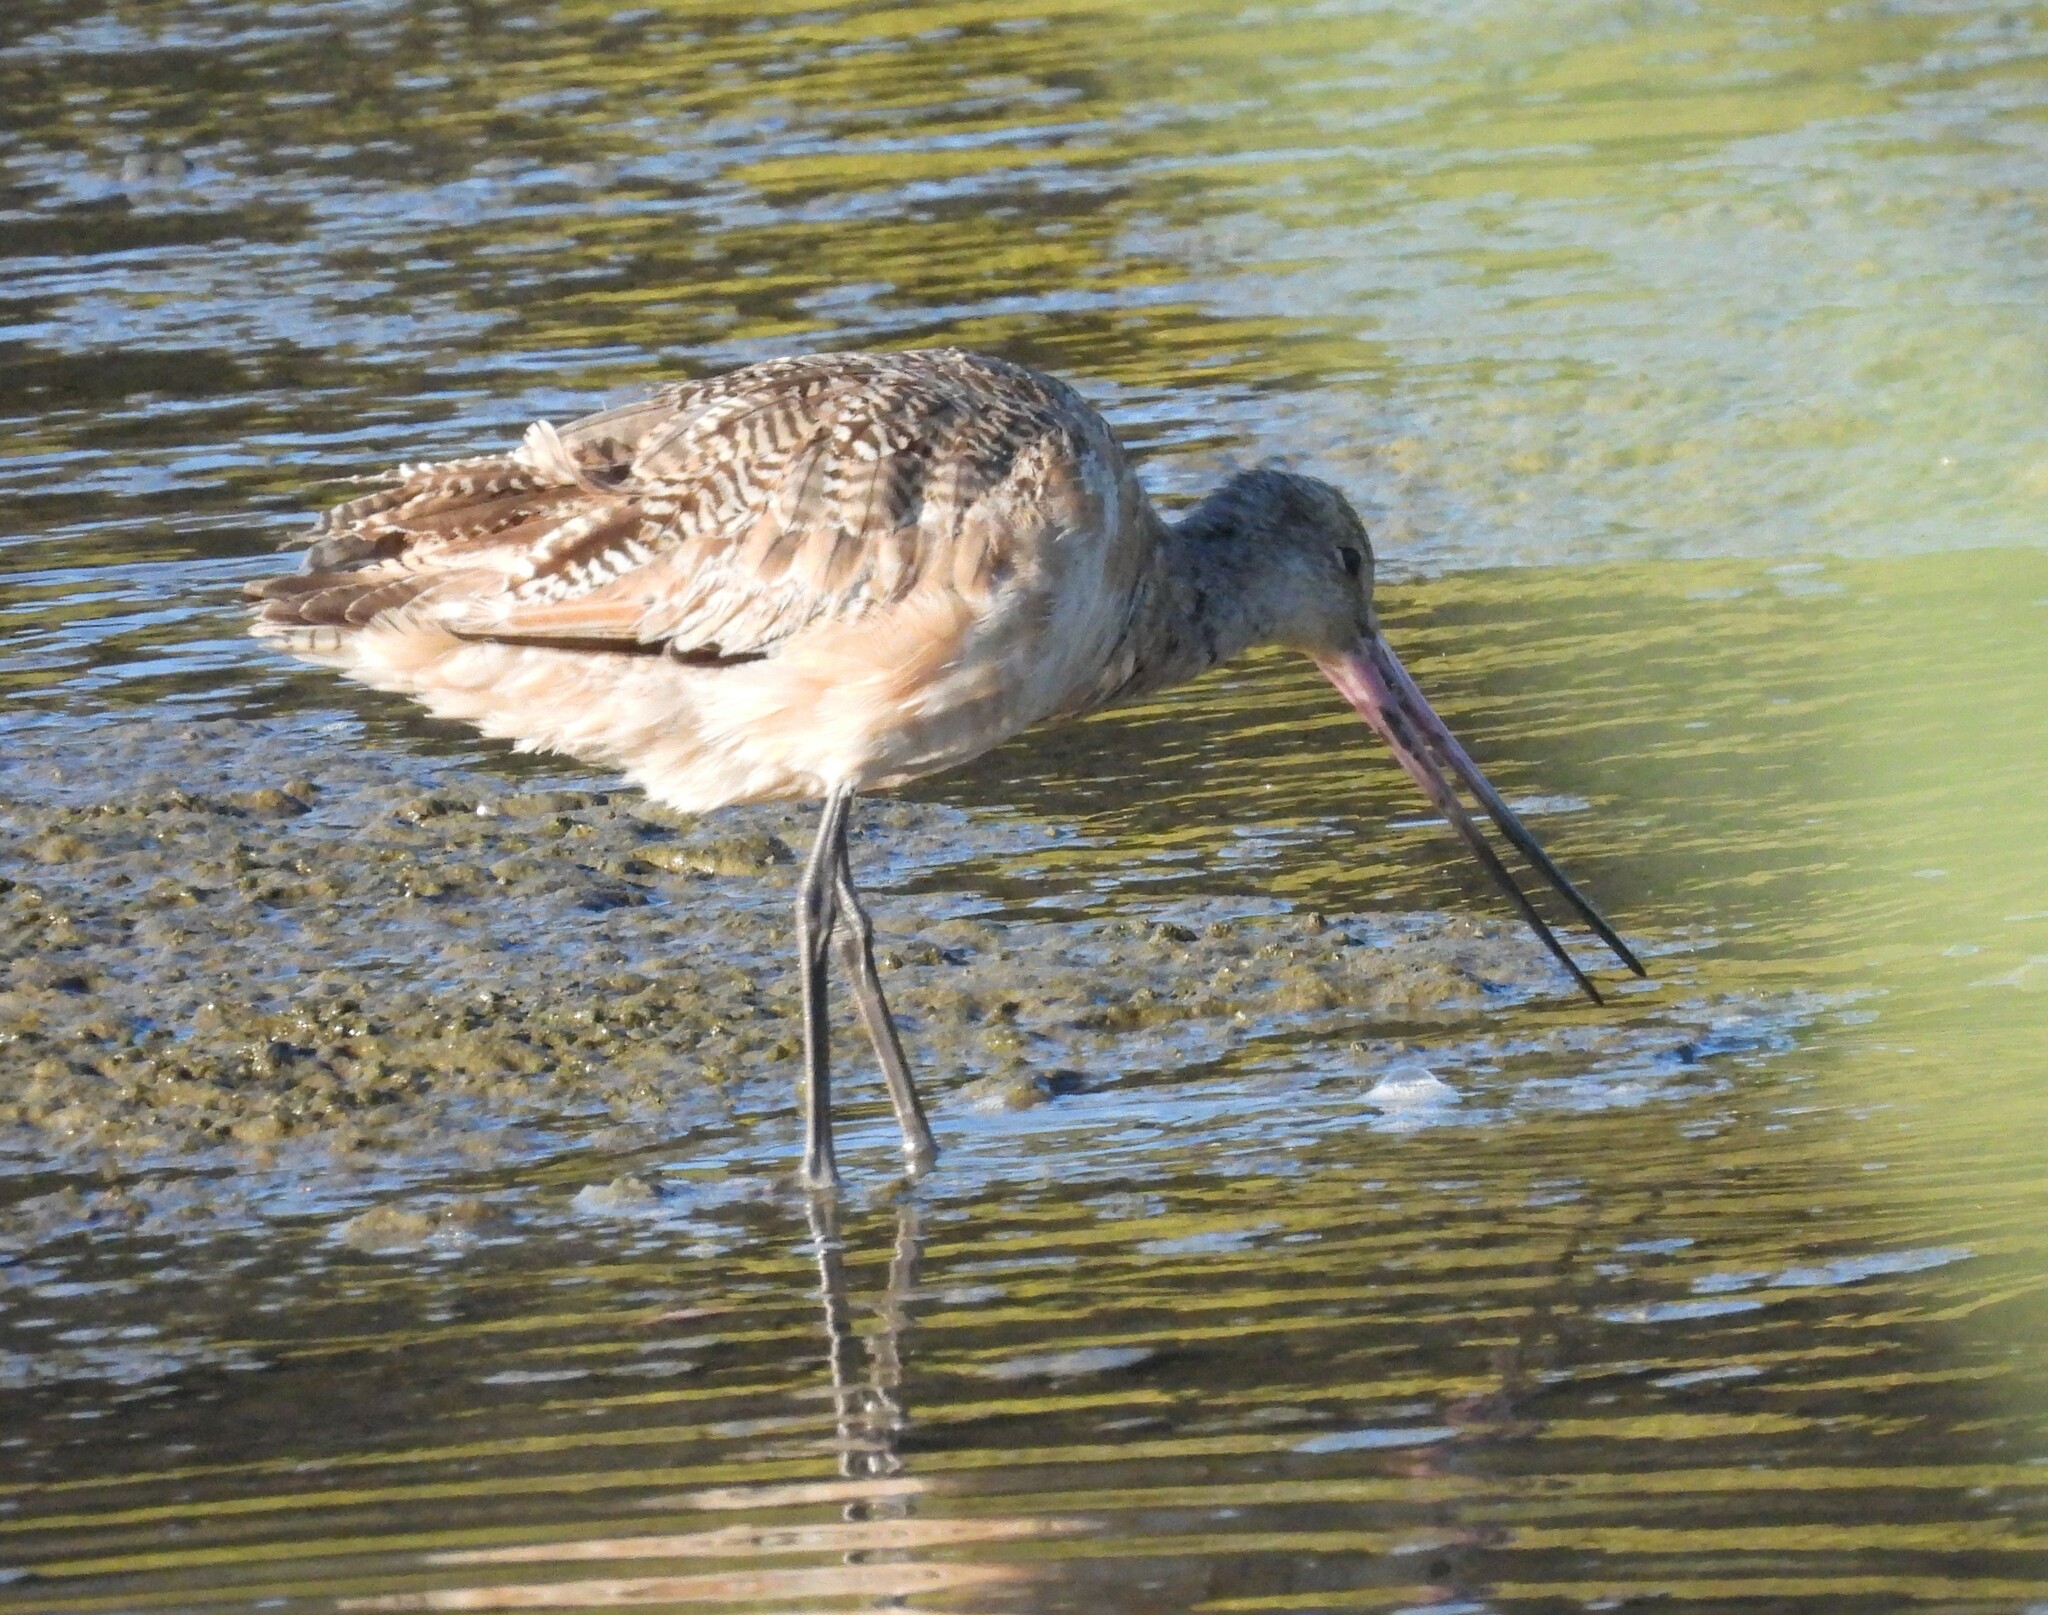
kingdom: Animalia
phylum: Chordata
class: Aves
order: Charadriiformes
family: Scolopacidae
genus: Limosa
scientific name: Limosa fedoa
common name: Marbled godwit
